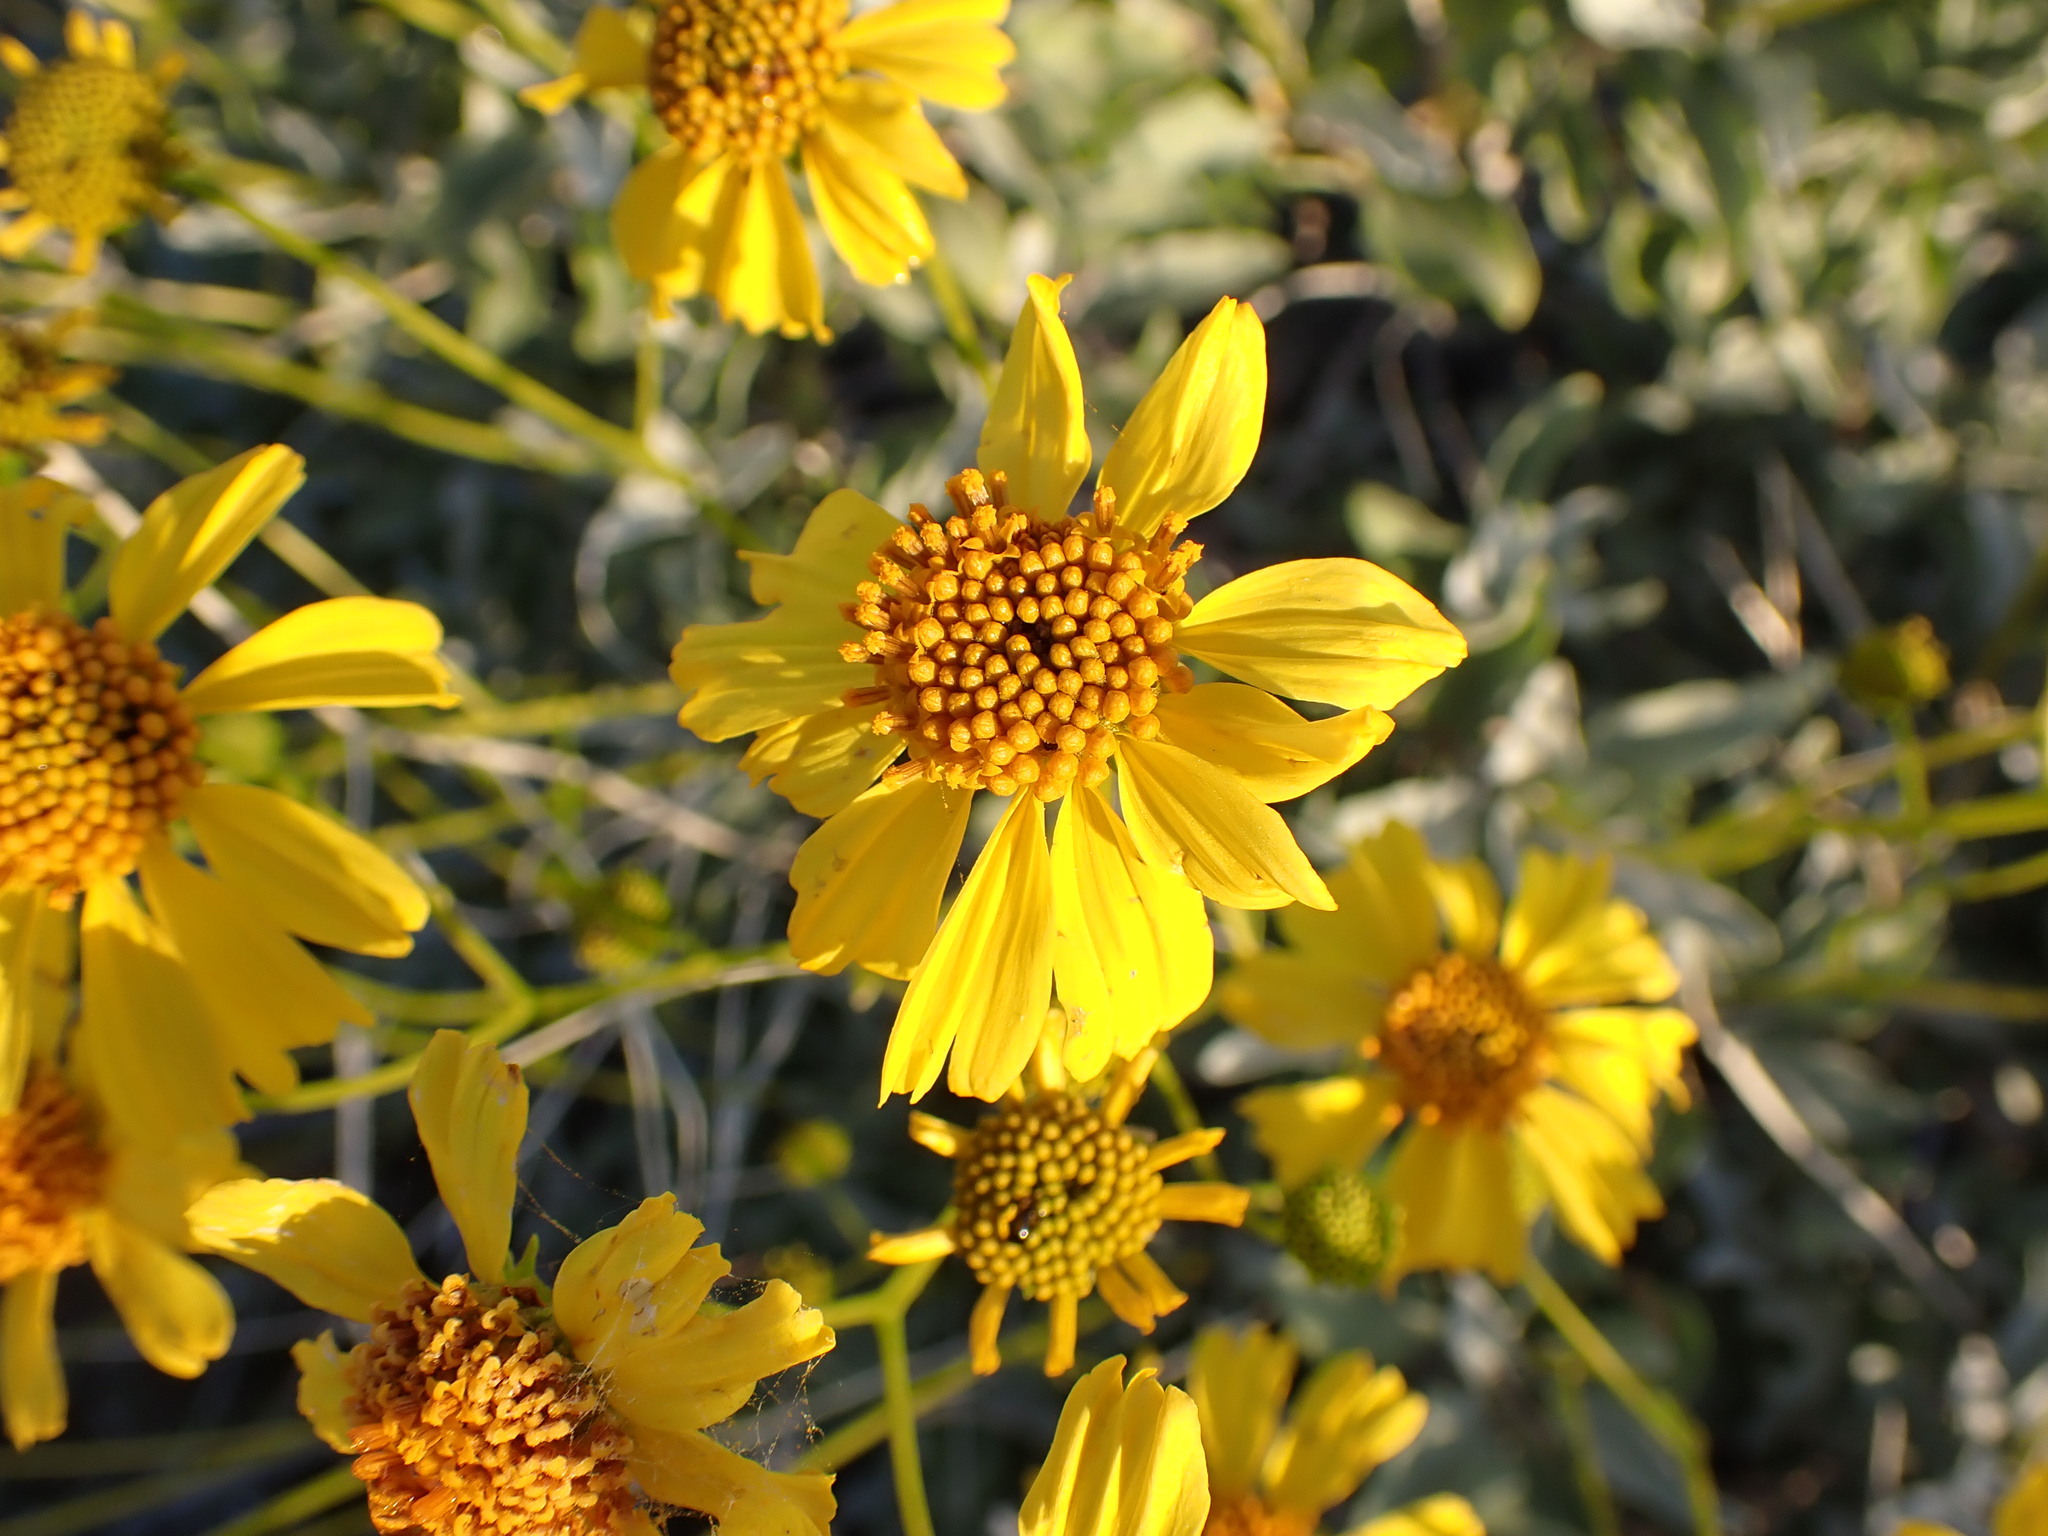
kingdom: Plantae
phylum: Tracheophyta
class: Magnoliopsida
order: Asterales
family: Asteraceae
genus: Encelia
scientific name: Encelia farinosa
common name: Brittlebush
